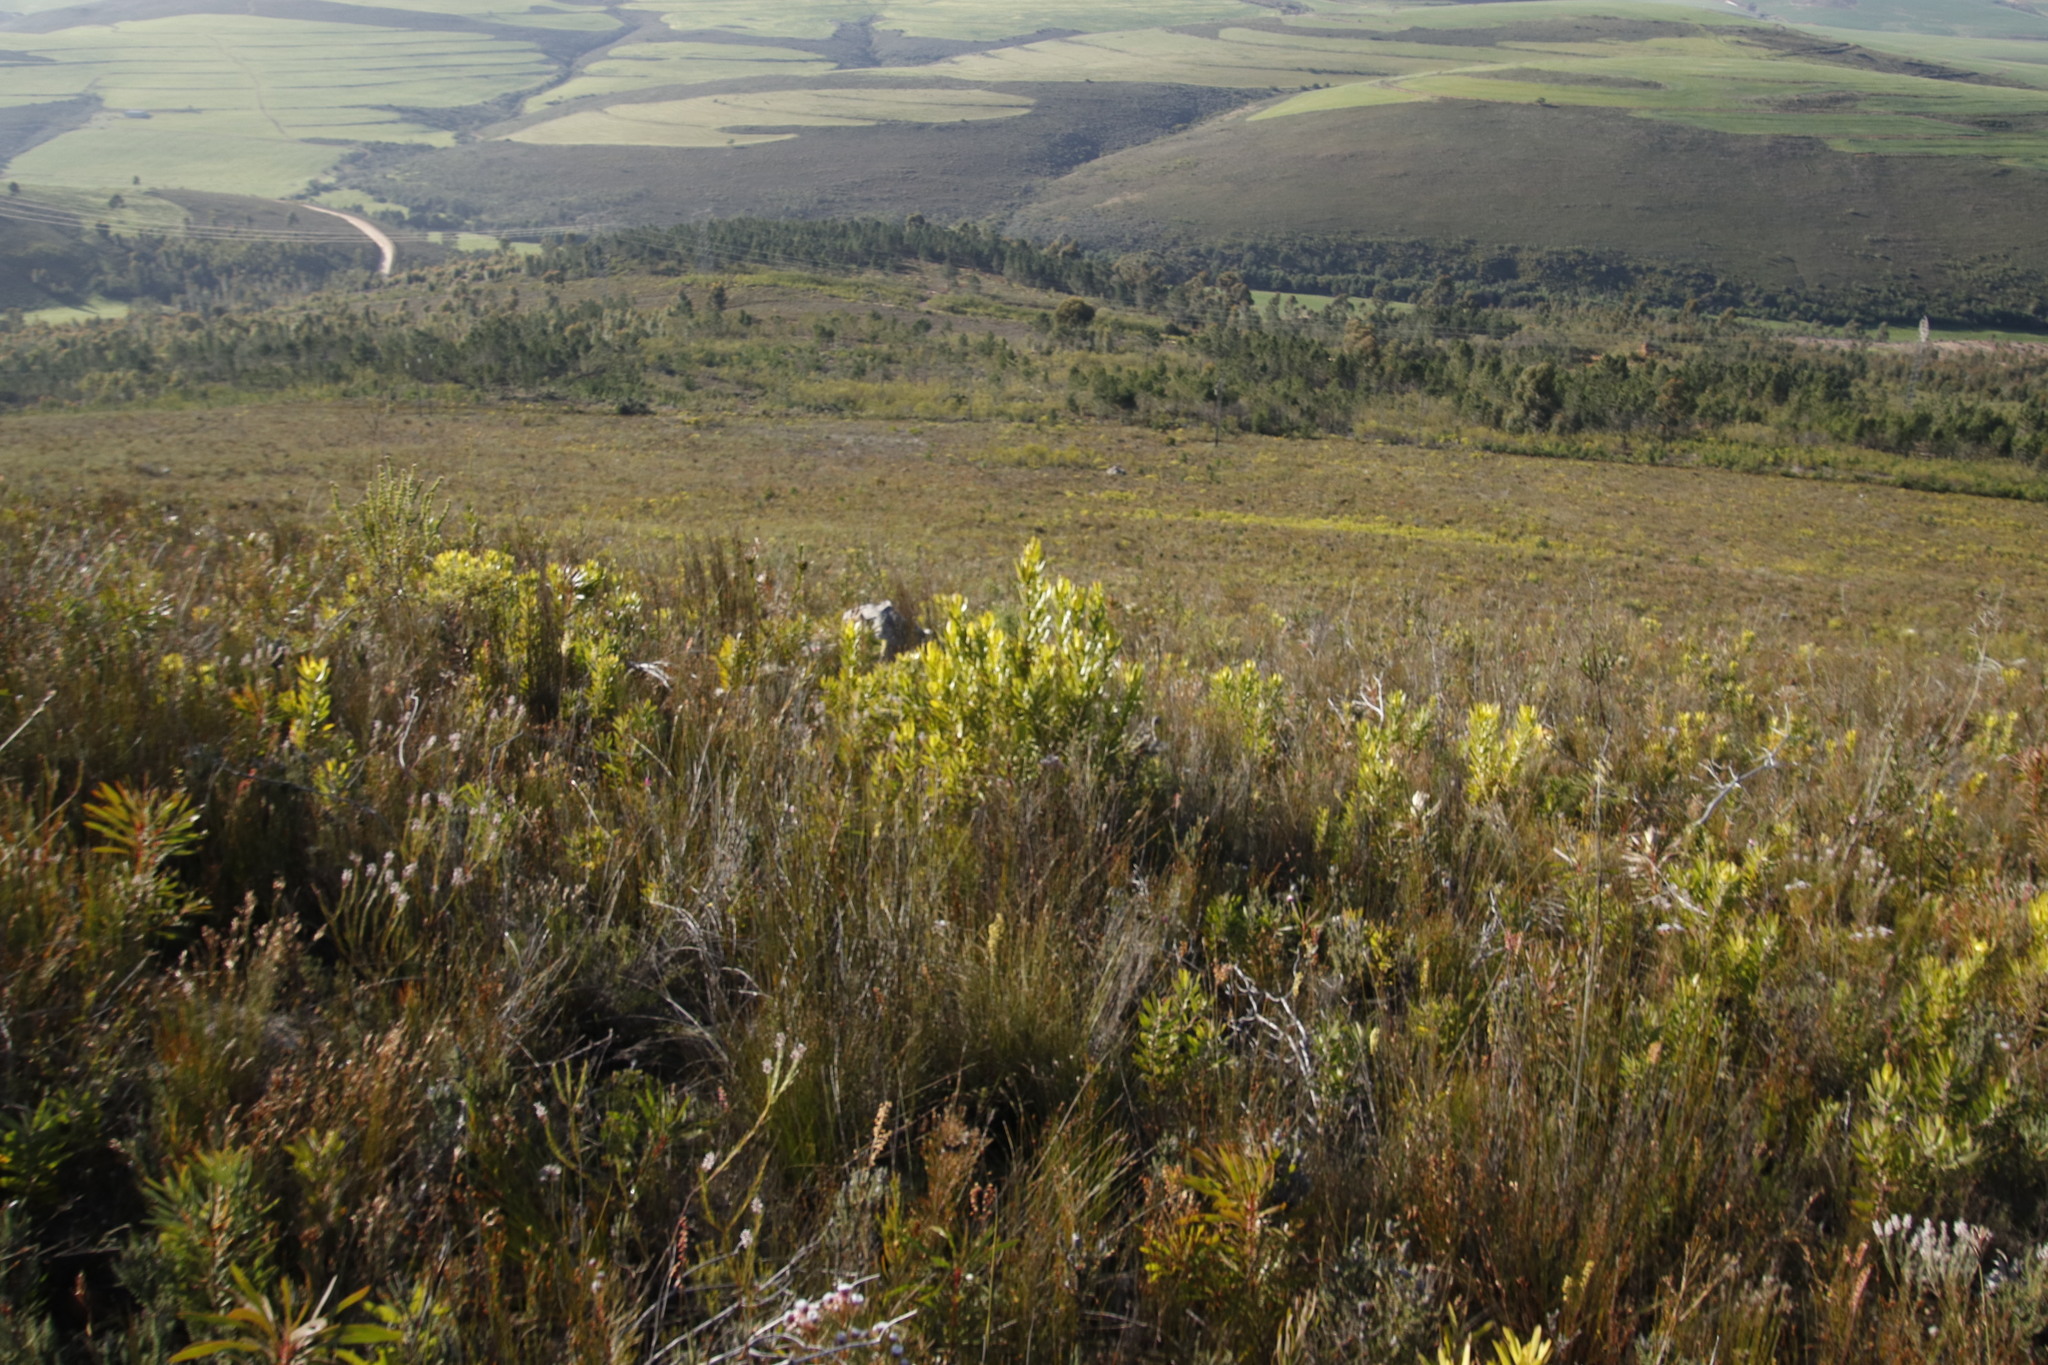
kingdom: Plantae
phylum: Tracheophyta
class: Magnoliopsida
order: Proteales
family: Proteaceae
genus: Leucadendron
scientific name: Leucadendron laureolum
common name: Golden sunshinebush
